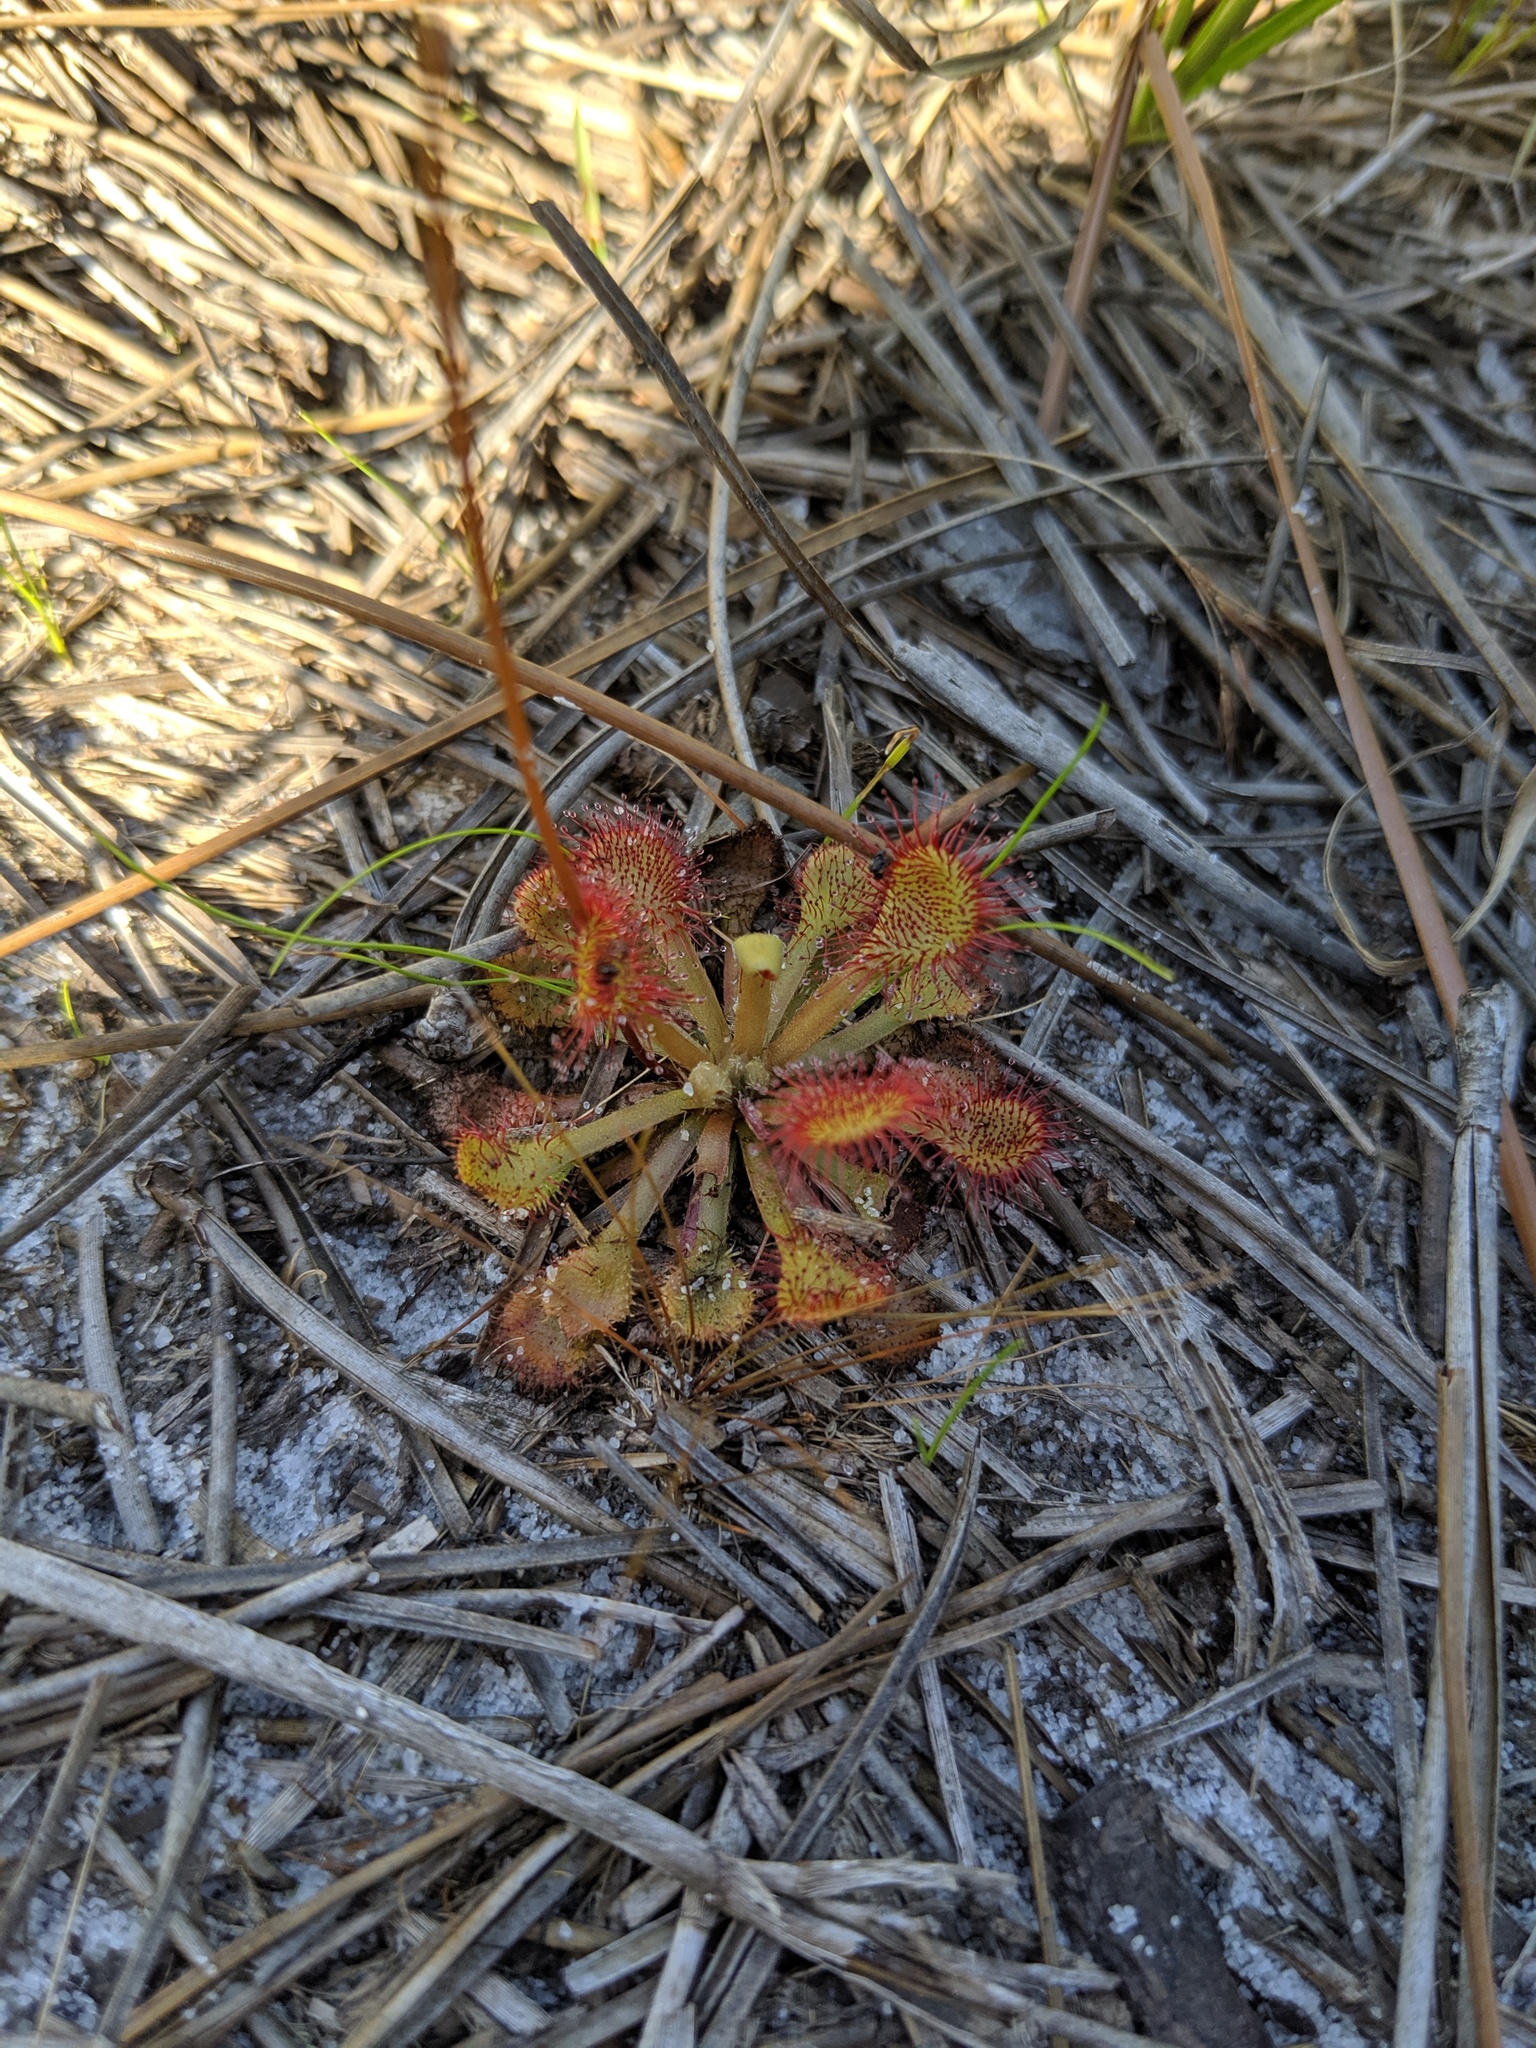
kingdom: Plantae
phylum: Tracheophyta
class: Magnoliopsida
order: Caryophyllales
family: Droseraceae
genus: Drosera
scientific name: Drosera capillaris
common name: Pink sundew
